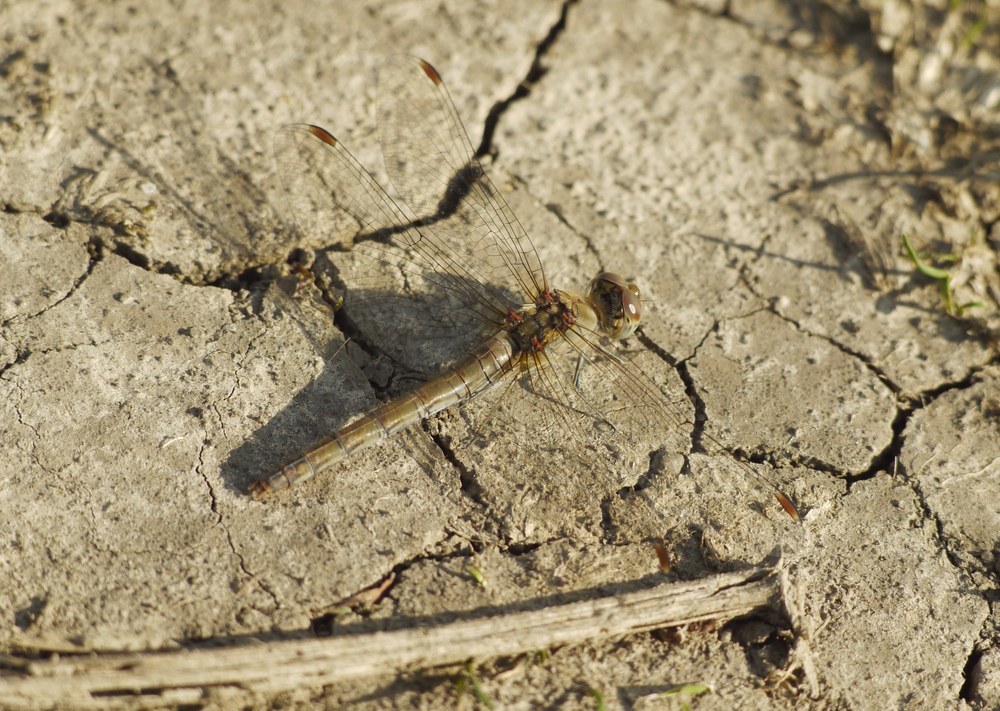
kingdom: Animalia
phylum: Arthropoda
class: Insecta
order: Odonata
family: Libellulidae
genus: Sympetrum
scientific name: Sympetrum striolatum
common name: Common darter
